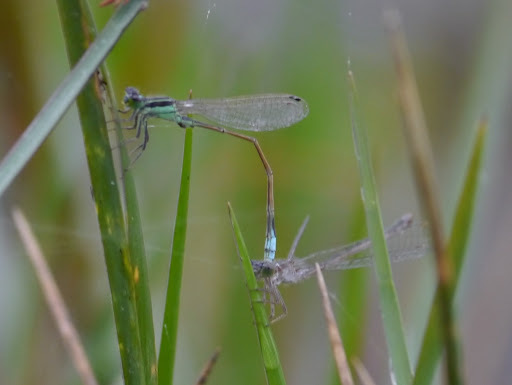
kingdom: Animalia
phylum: Arthropoda
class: Insecta
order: Odonata
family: Coenagrionidae
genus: Ischnura
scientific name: Ischnura ramburii
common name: Rambur's forktail
